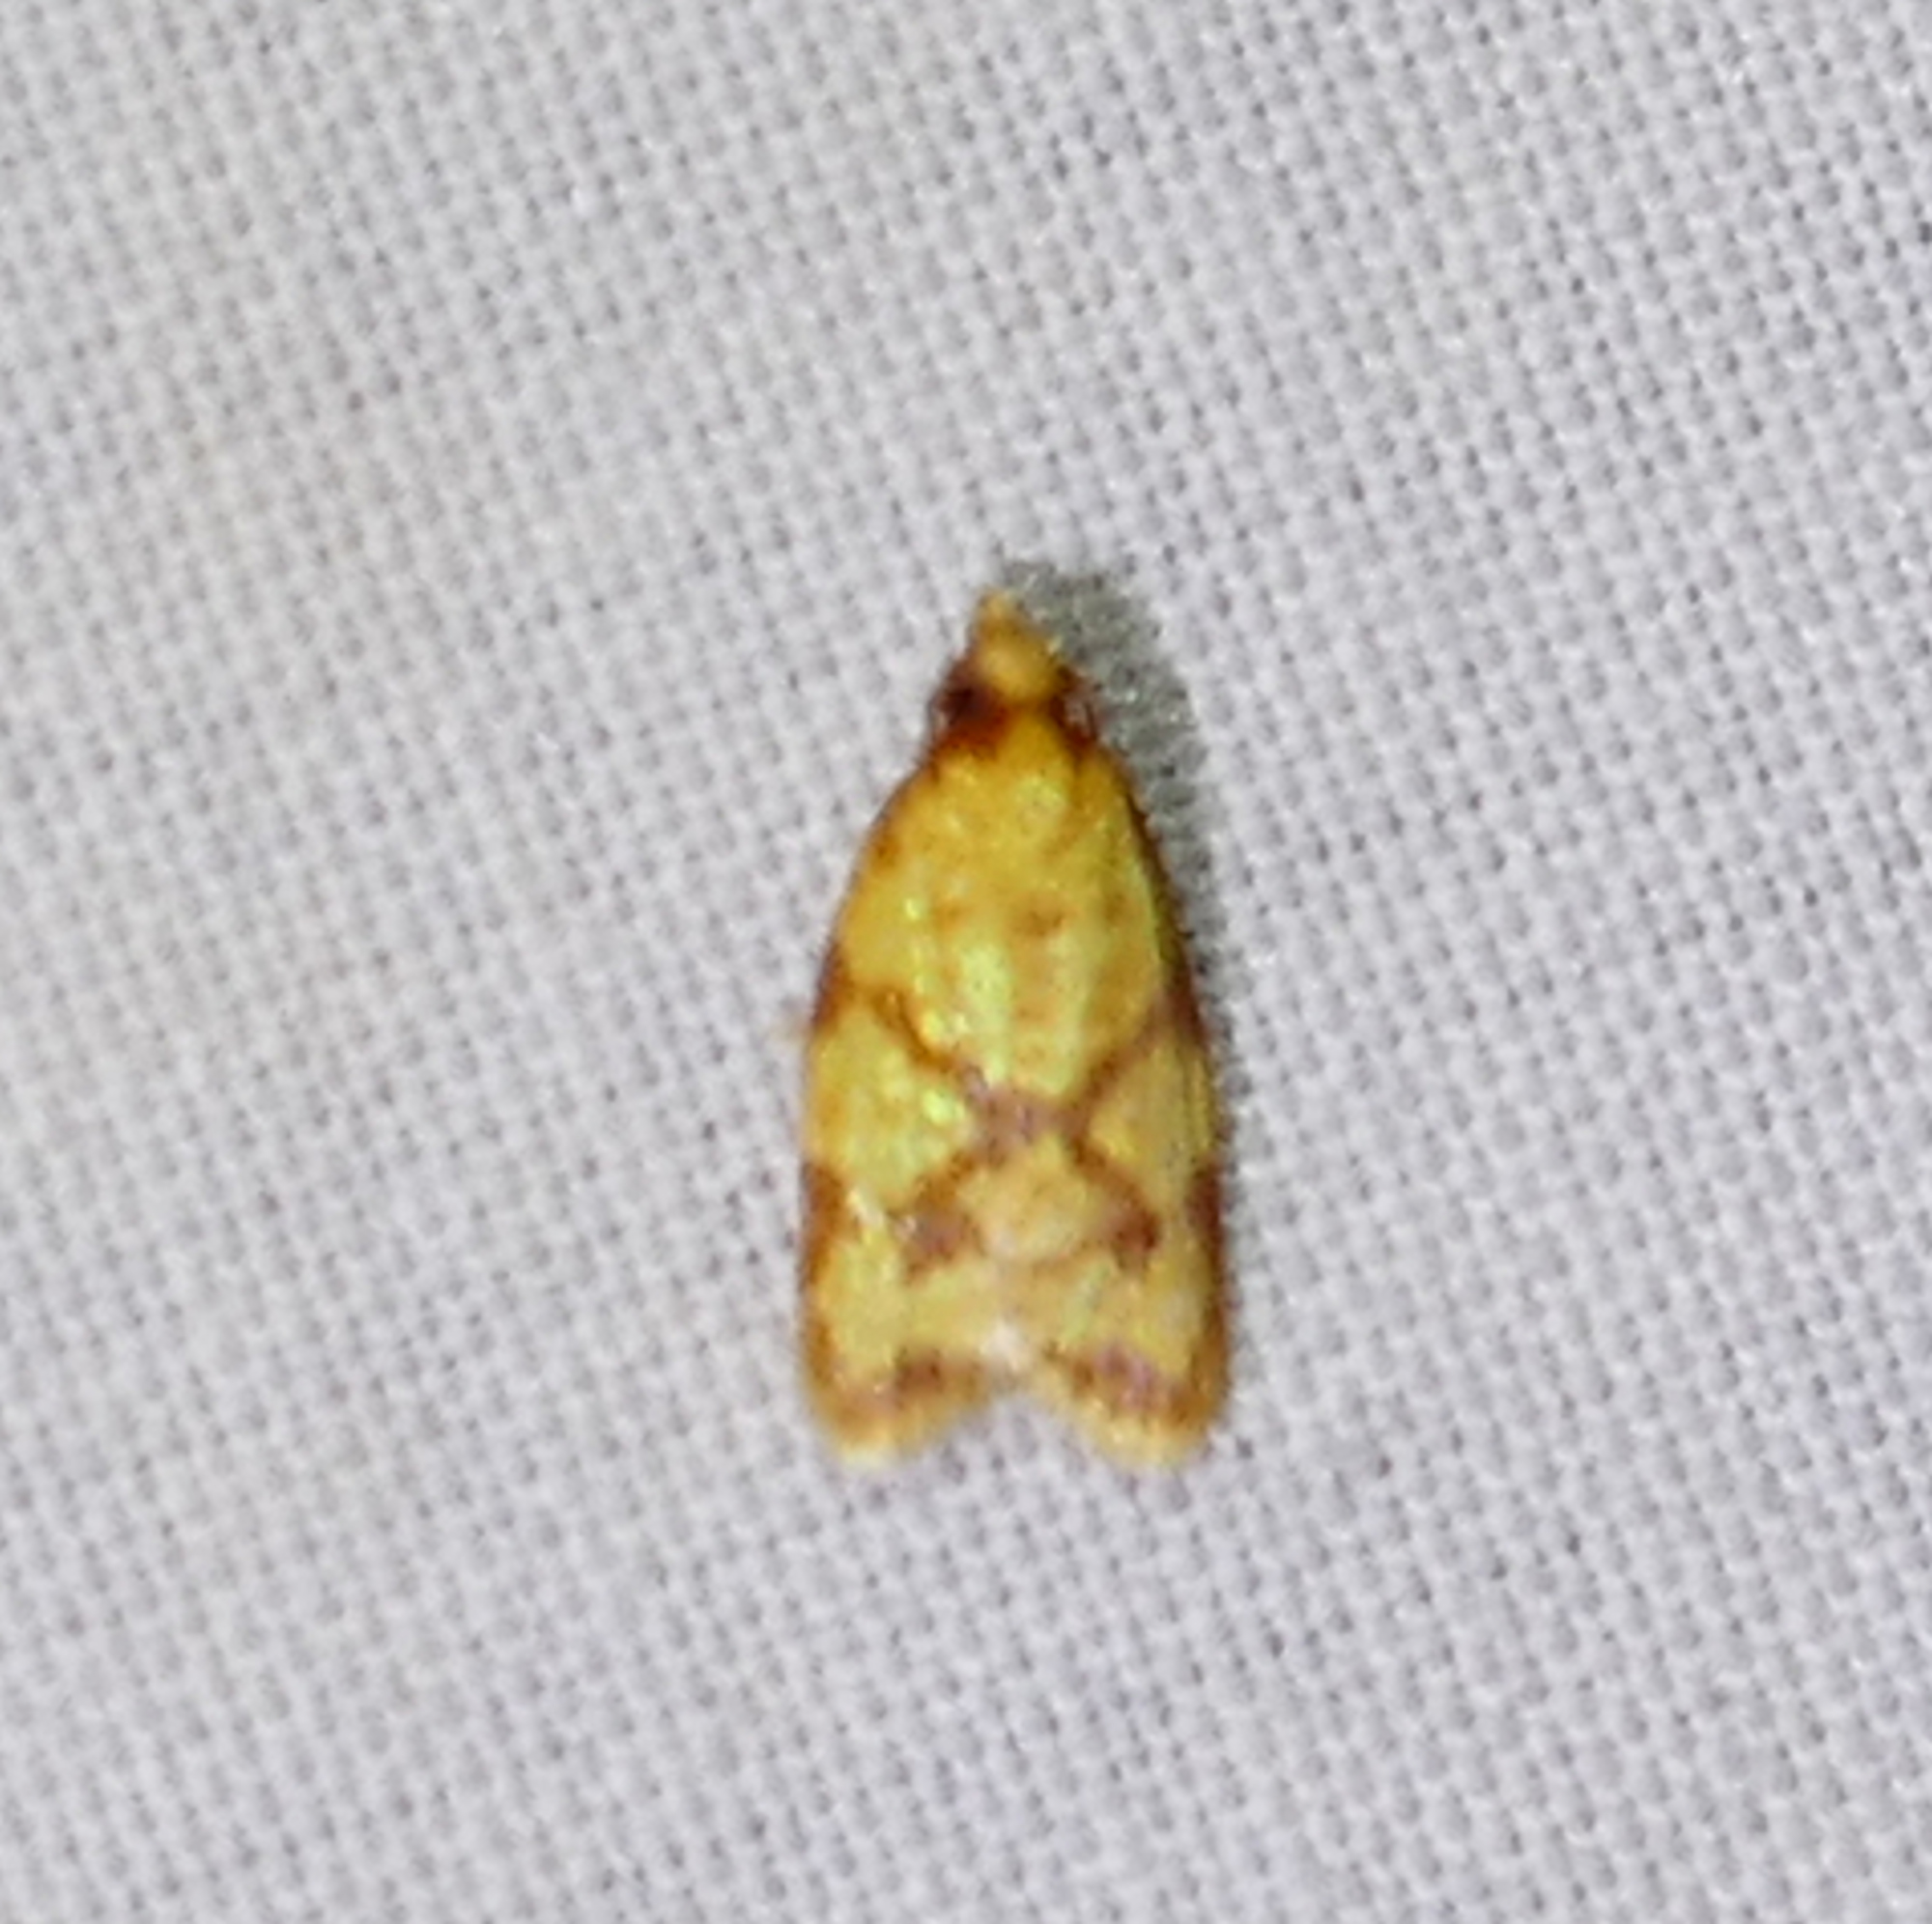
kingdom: Animalia
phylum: Arthropoda
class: Insecta
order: Lepidoptera
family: Tortricidae
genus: Sparganothis
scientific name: Sparganothis sulfureana
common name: Sparganothis fruitworm moth
